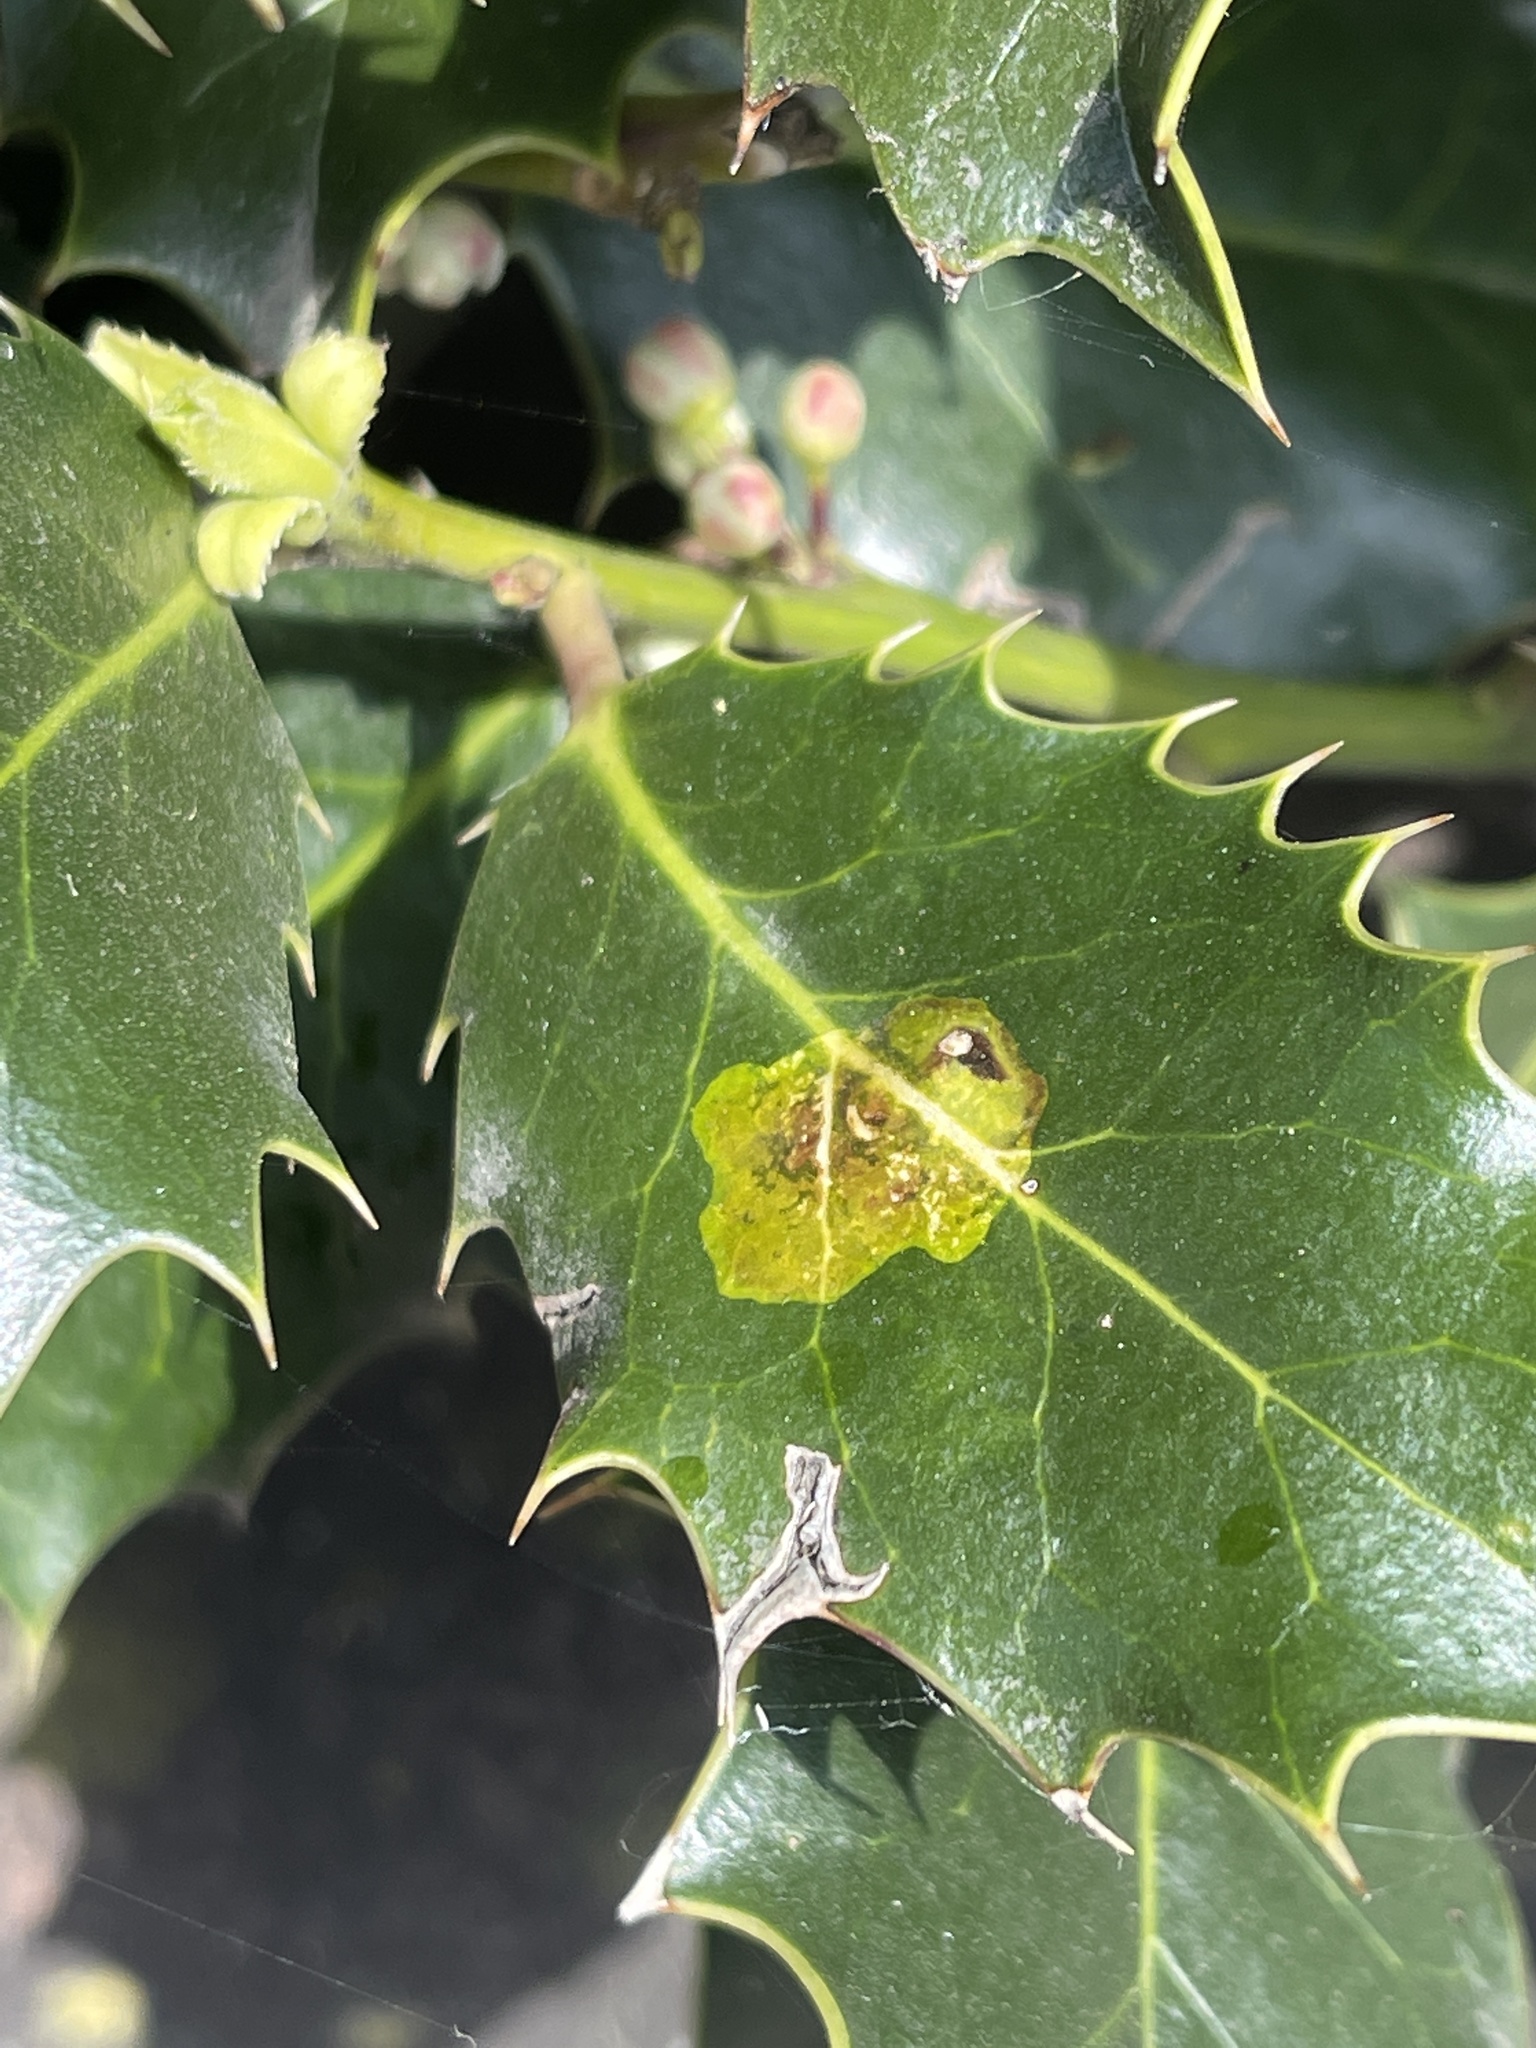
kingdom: Animalia
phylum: Arthropoda
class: Insecta
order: Diptera
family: Agromyzidae
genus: Phytomyza
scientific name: Phytomyza ilicis
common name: Holly leafminer
